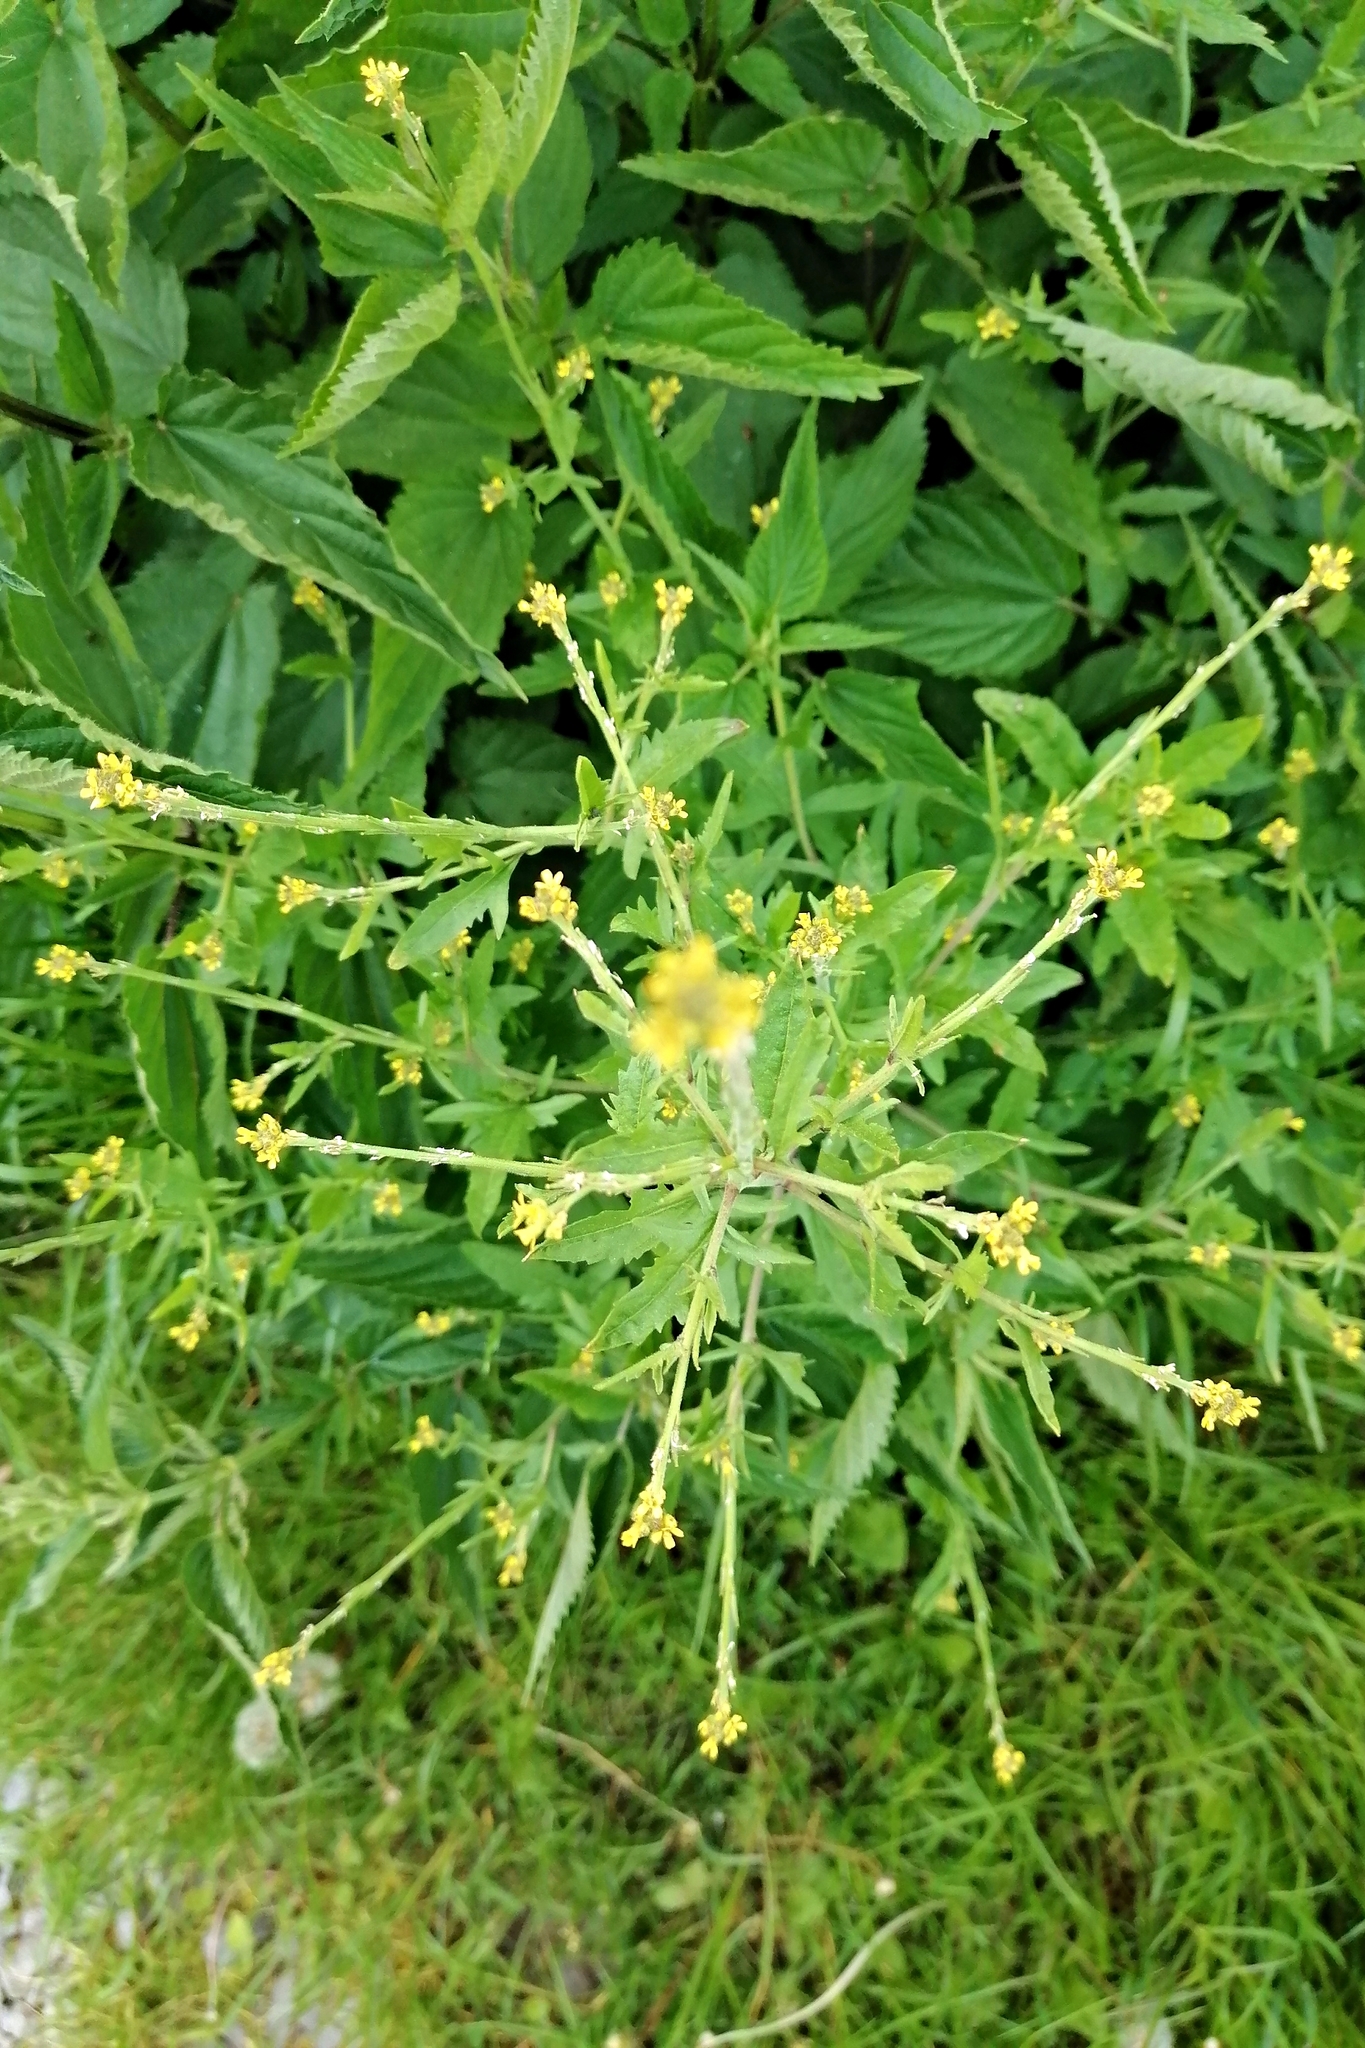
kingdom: Plantae
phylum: Tracheophyta
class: Magnoliopsida
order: Brassicales
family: Brassicaceae
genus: Sisymbrium
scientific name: Sisymbrium officinale
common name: Hedge mustard
